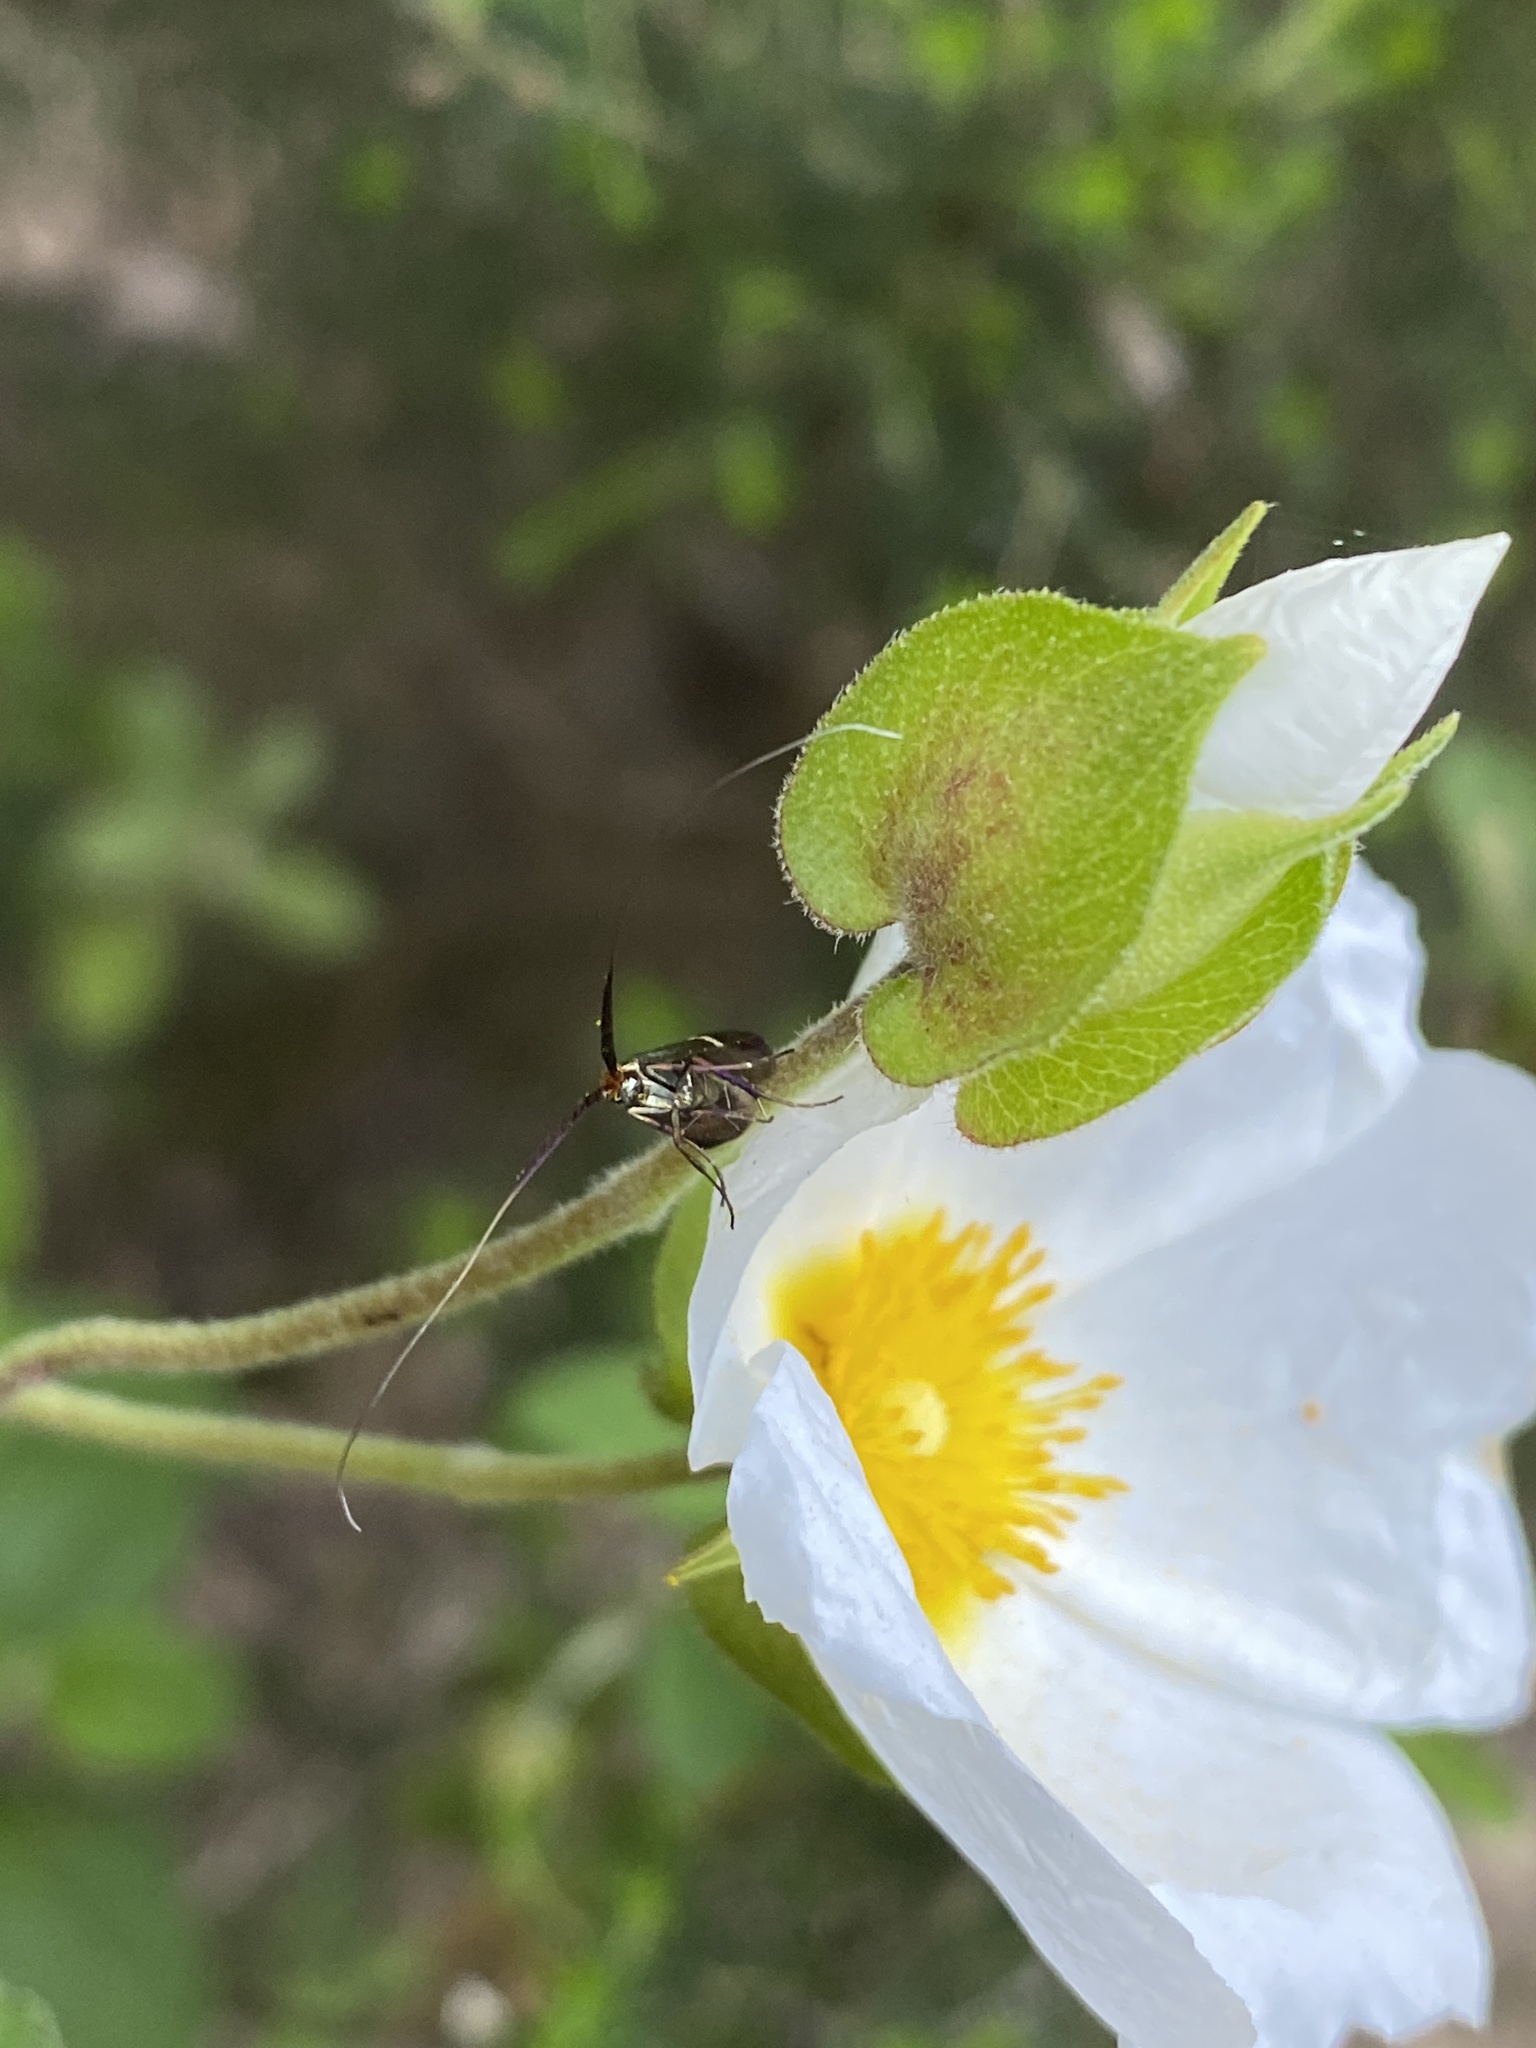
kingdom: Animalia
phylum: Arthropoda
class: Insecta
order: Lepidoptera
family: Adelidae
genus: Adela
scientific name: Adela australis
